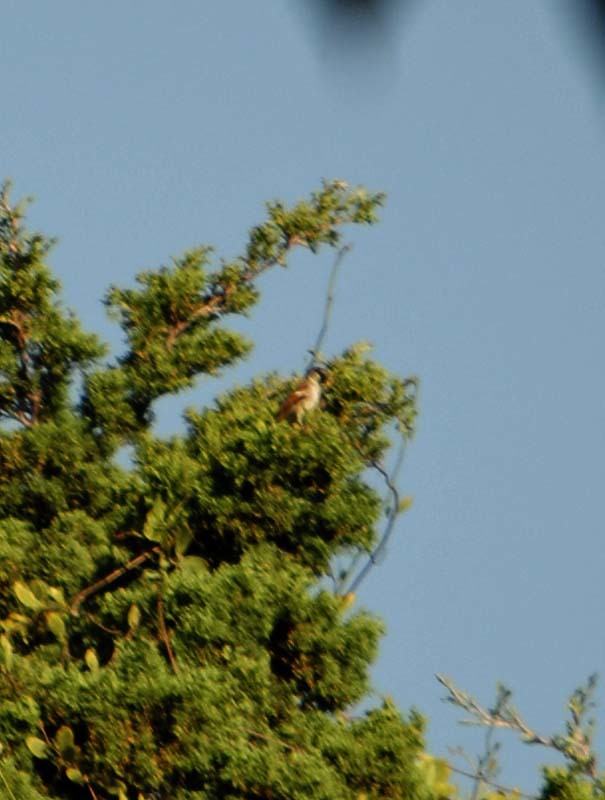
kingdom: Animalia
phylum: Chordata
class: Aves
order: Passeriformes
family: Passeridae
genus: Passer
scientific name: Passer domesticus
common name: House sparrow
